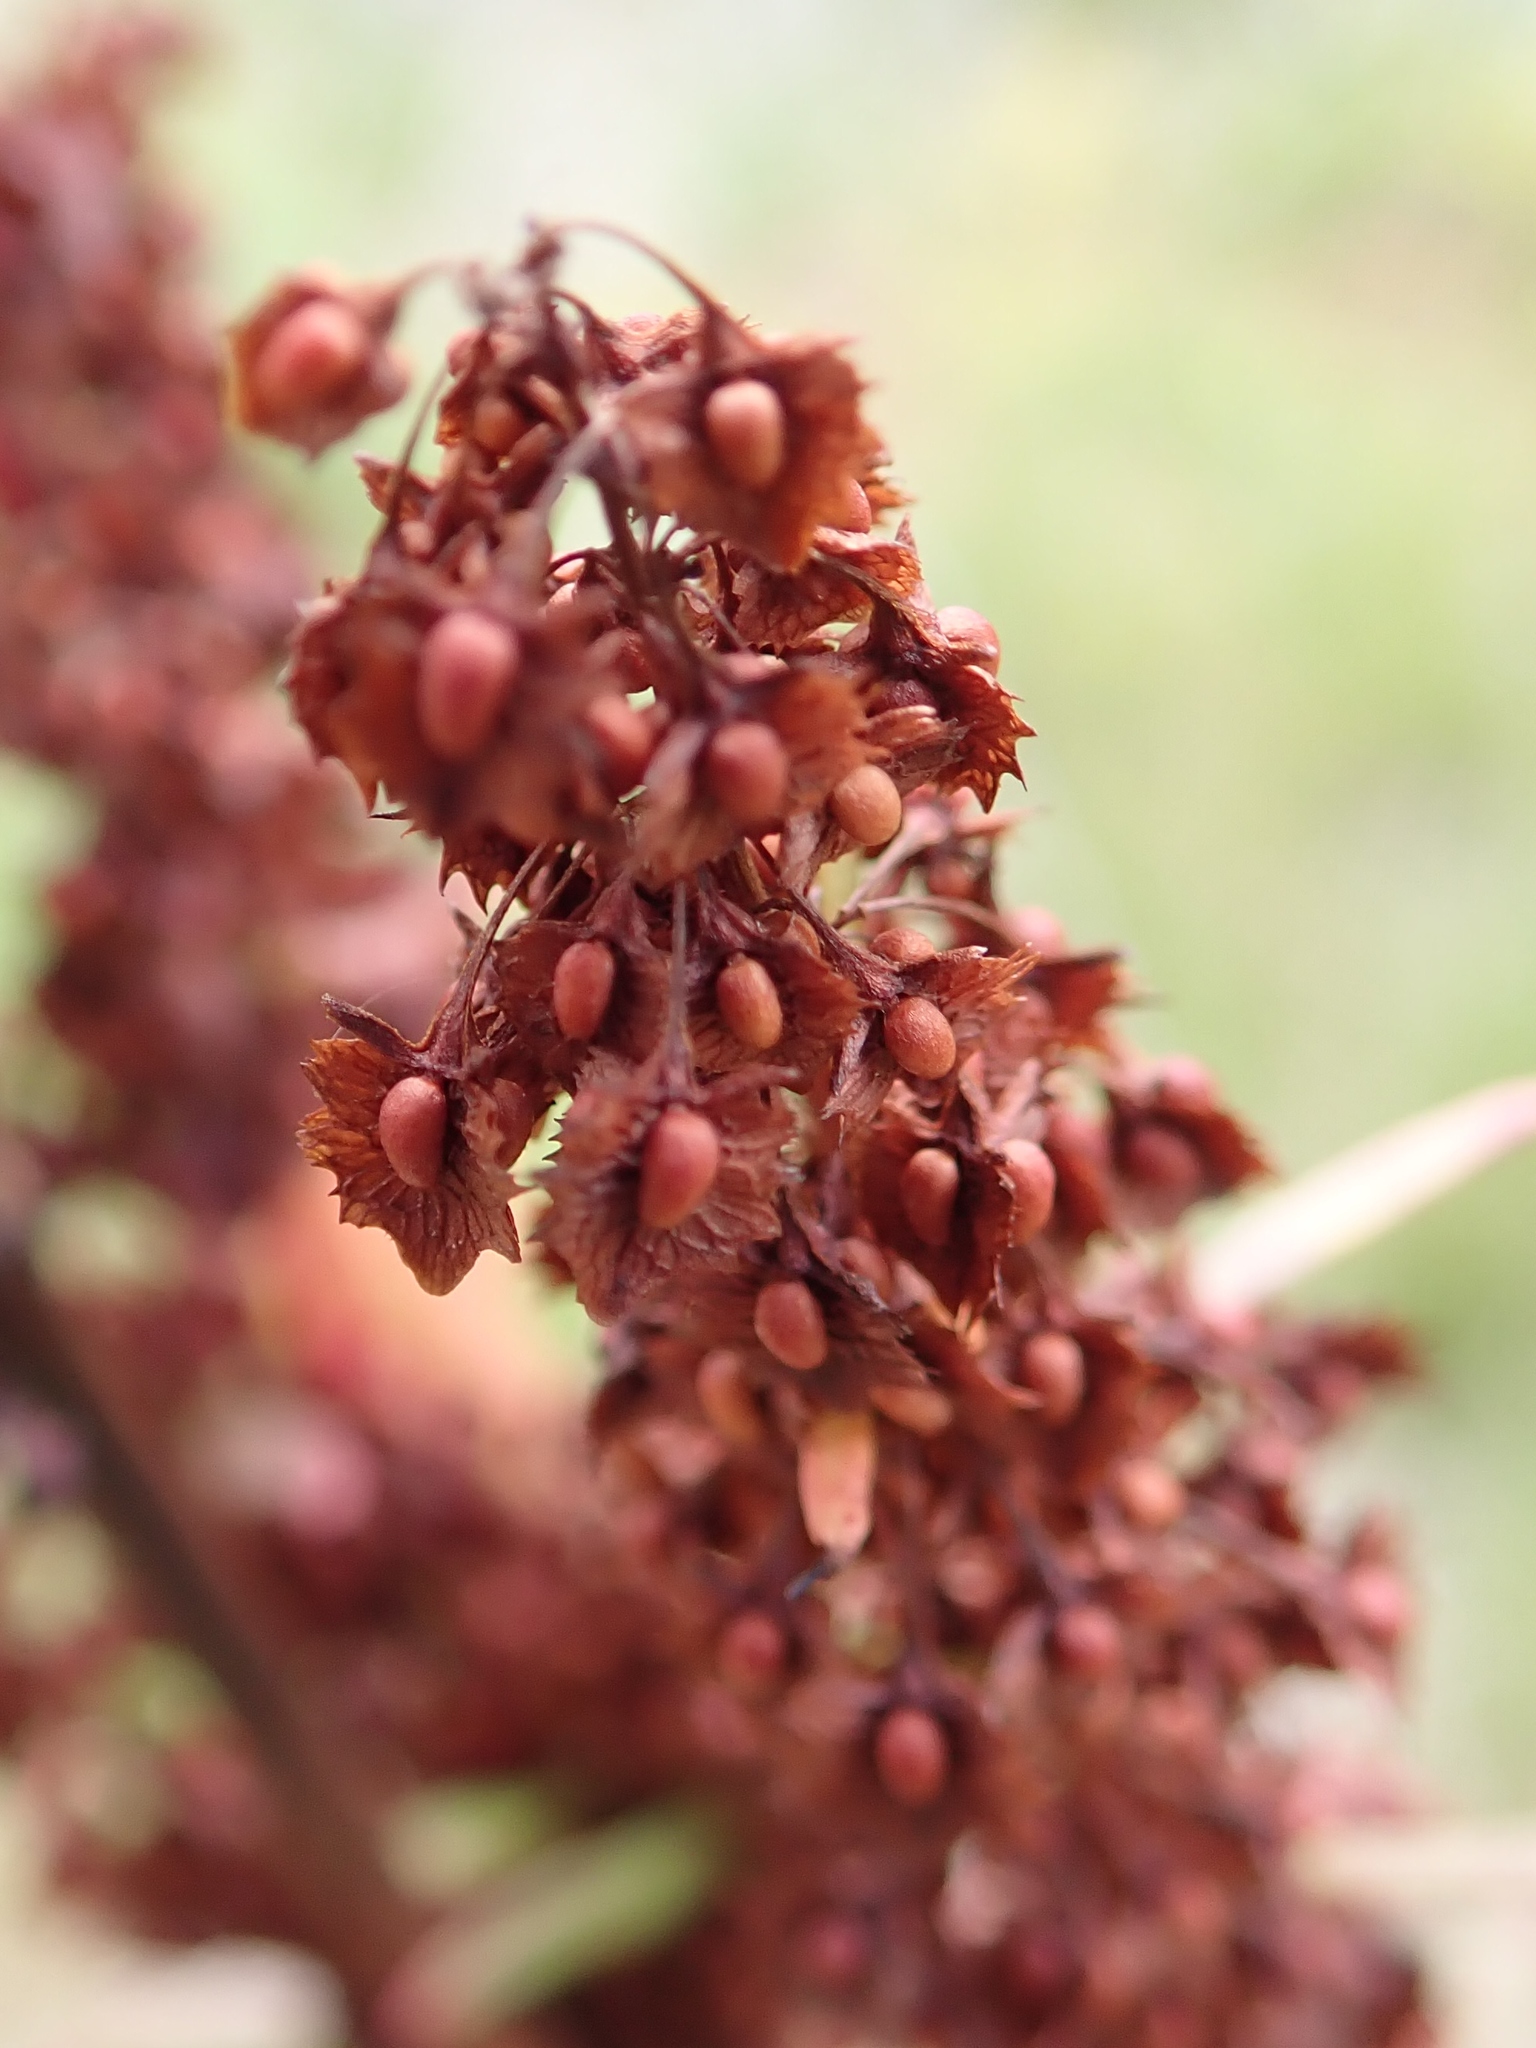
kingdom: Plantae
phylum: Tracheophyta
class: Magnoliopsida
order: Caryophyllales
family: Polygonaceae
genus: Rumex
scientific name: Rumex crispus
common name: Curled dock
